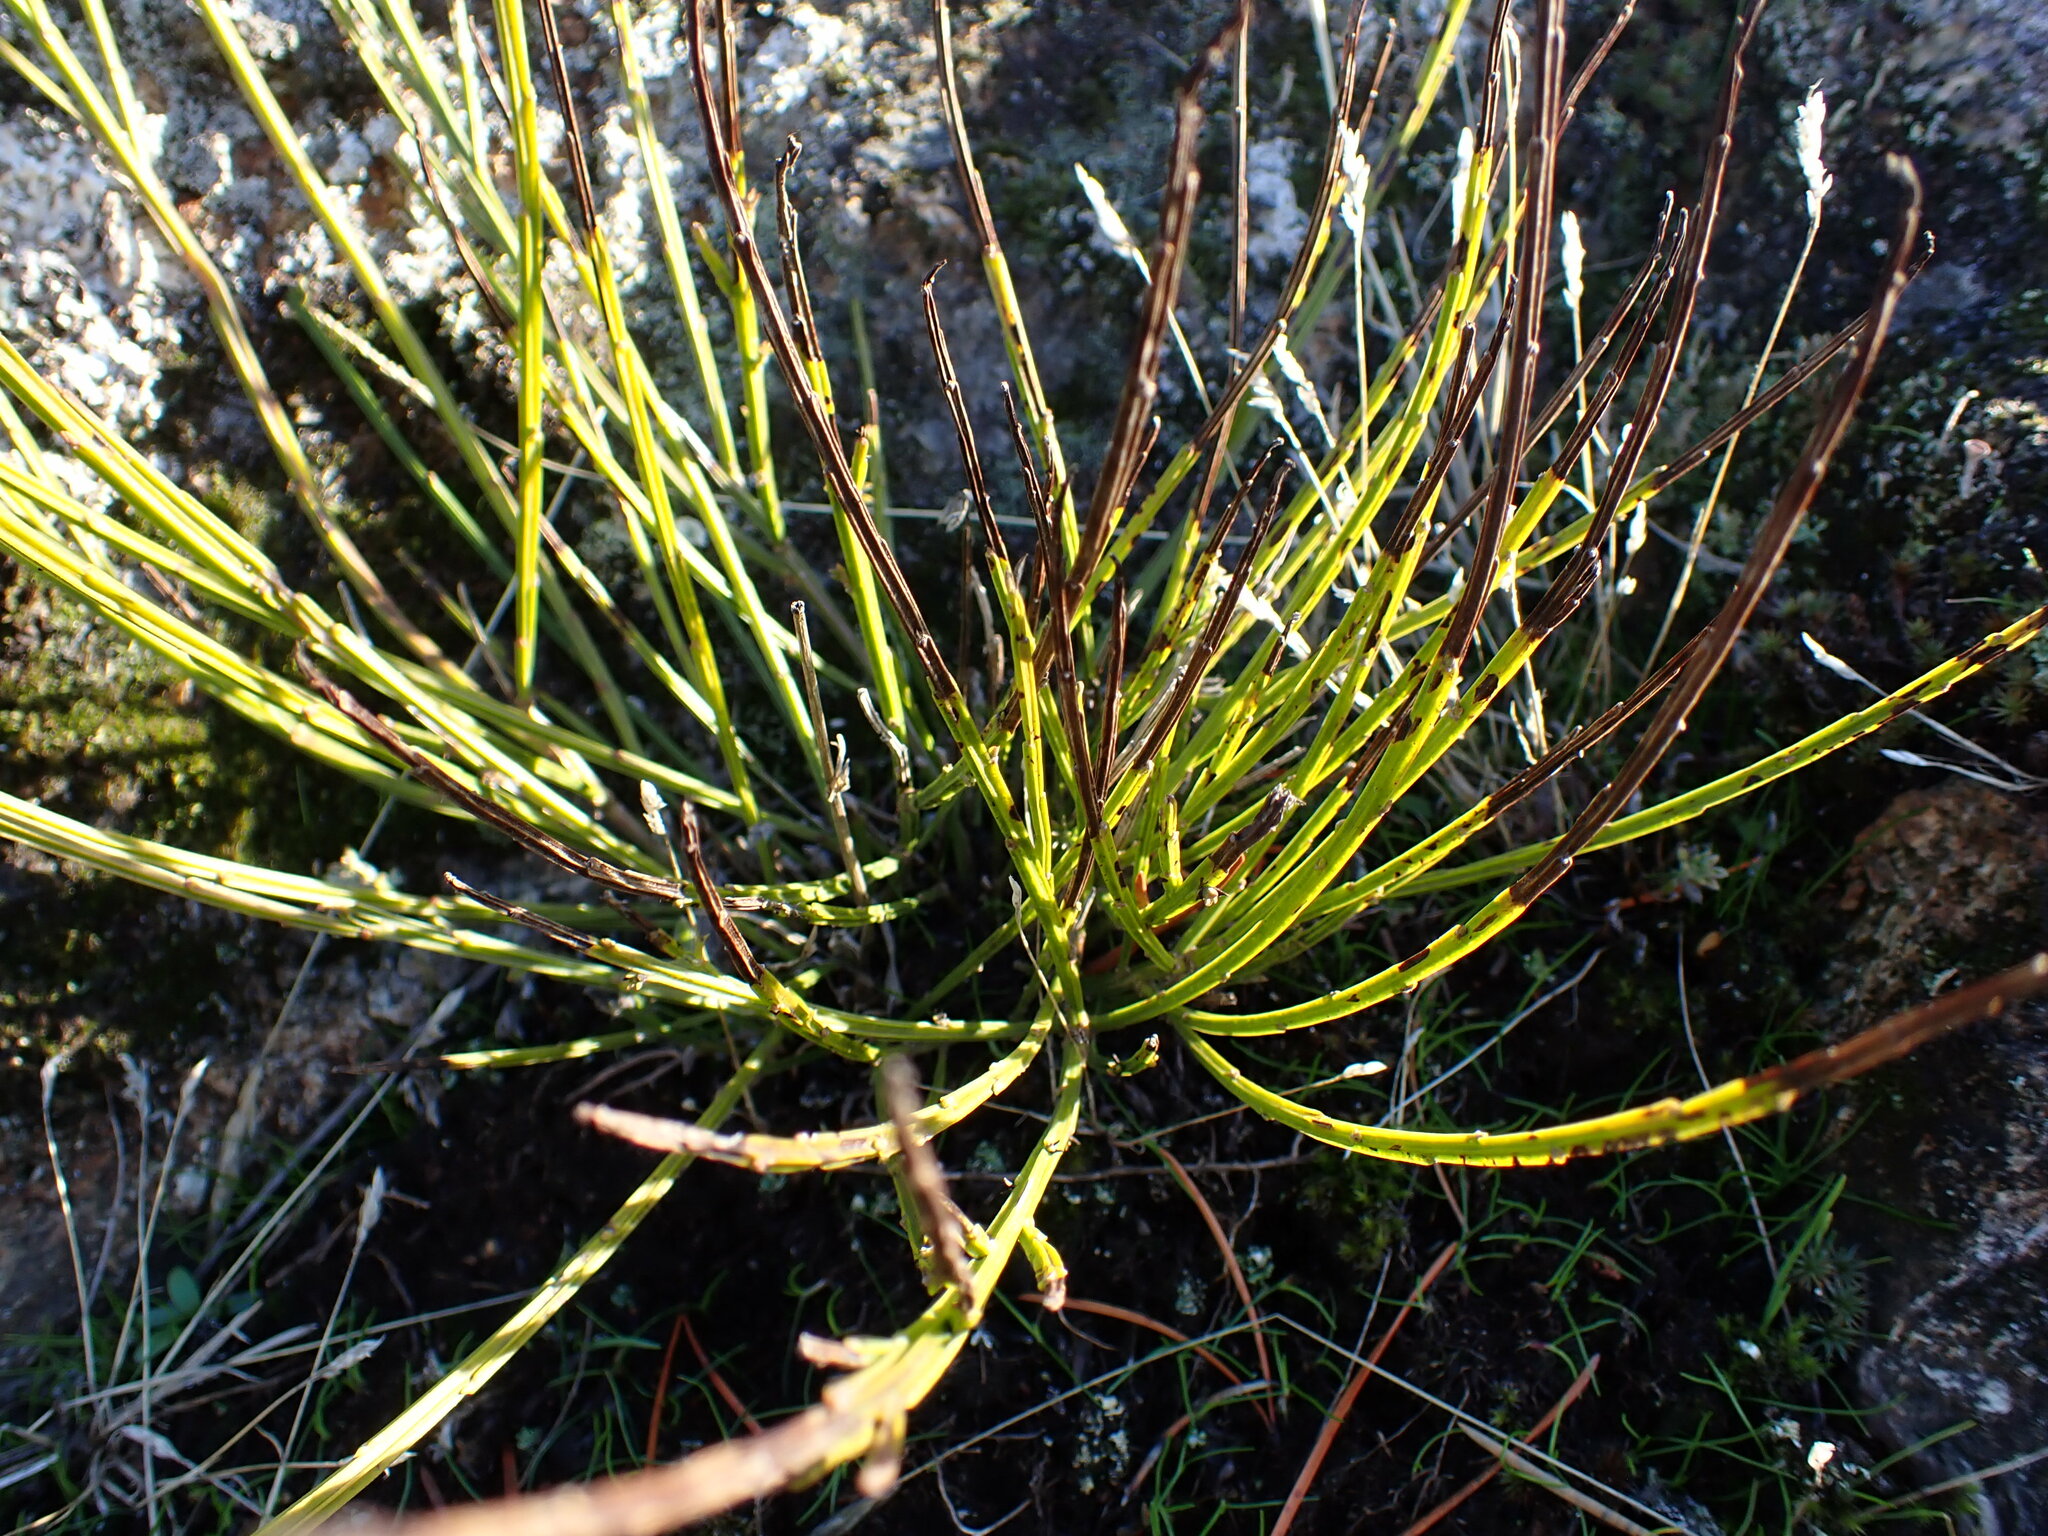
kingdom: Plantae
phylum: Tracheophyta
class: Magnoliopsida
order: Fabales
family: Fabaceae
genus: Cytisus
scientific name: Cytisus scoparius
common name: Scotch broom
